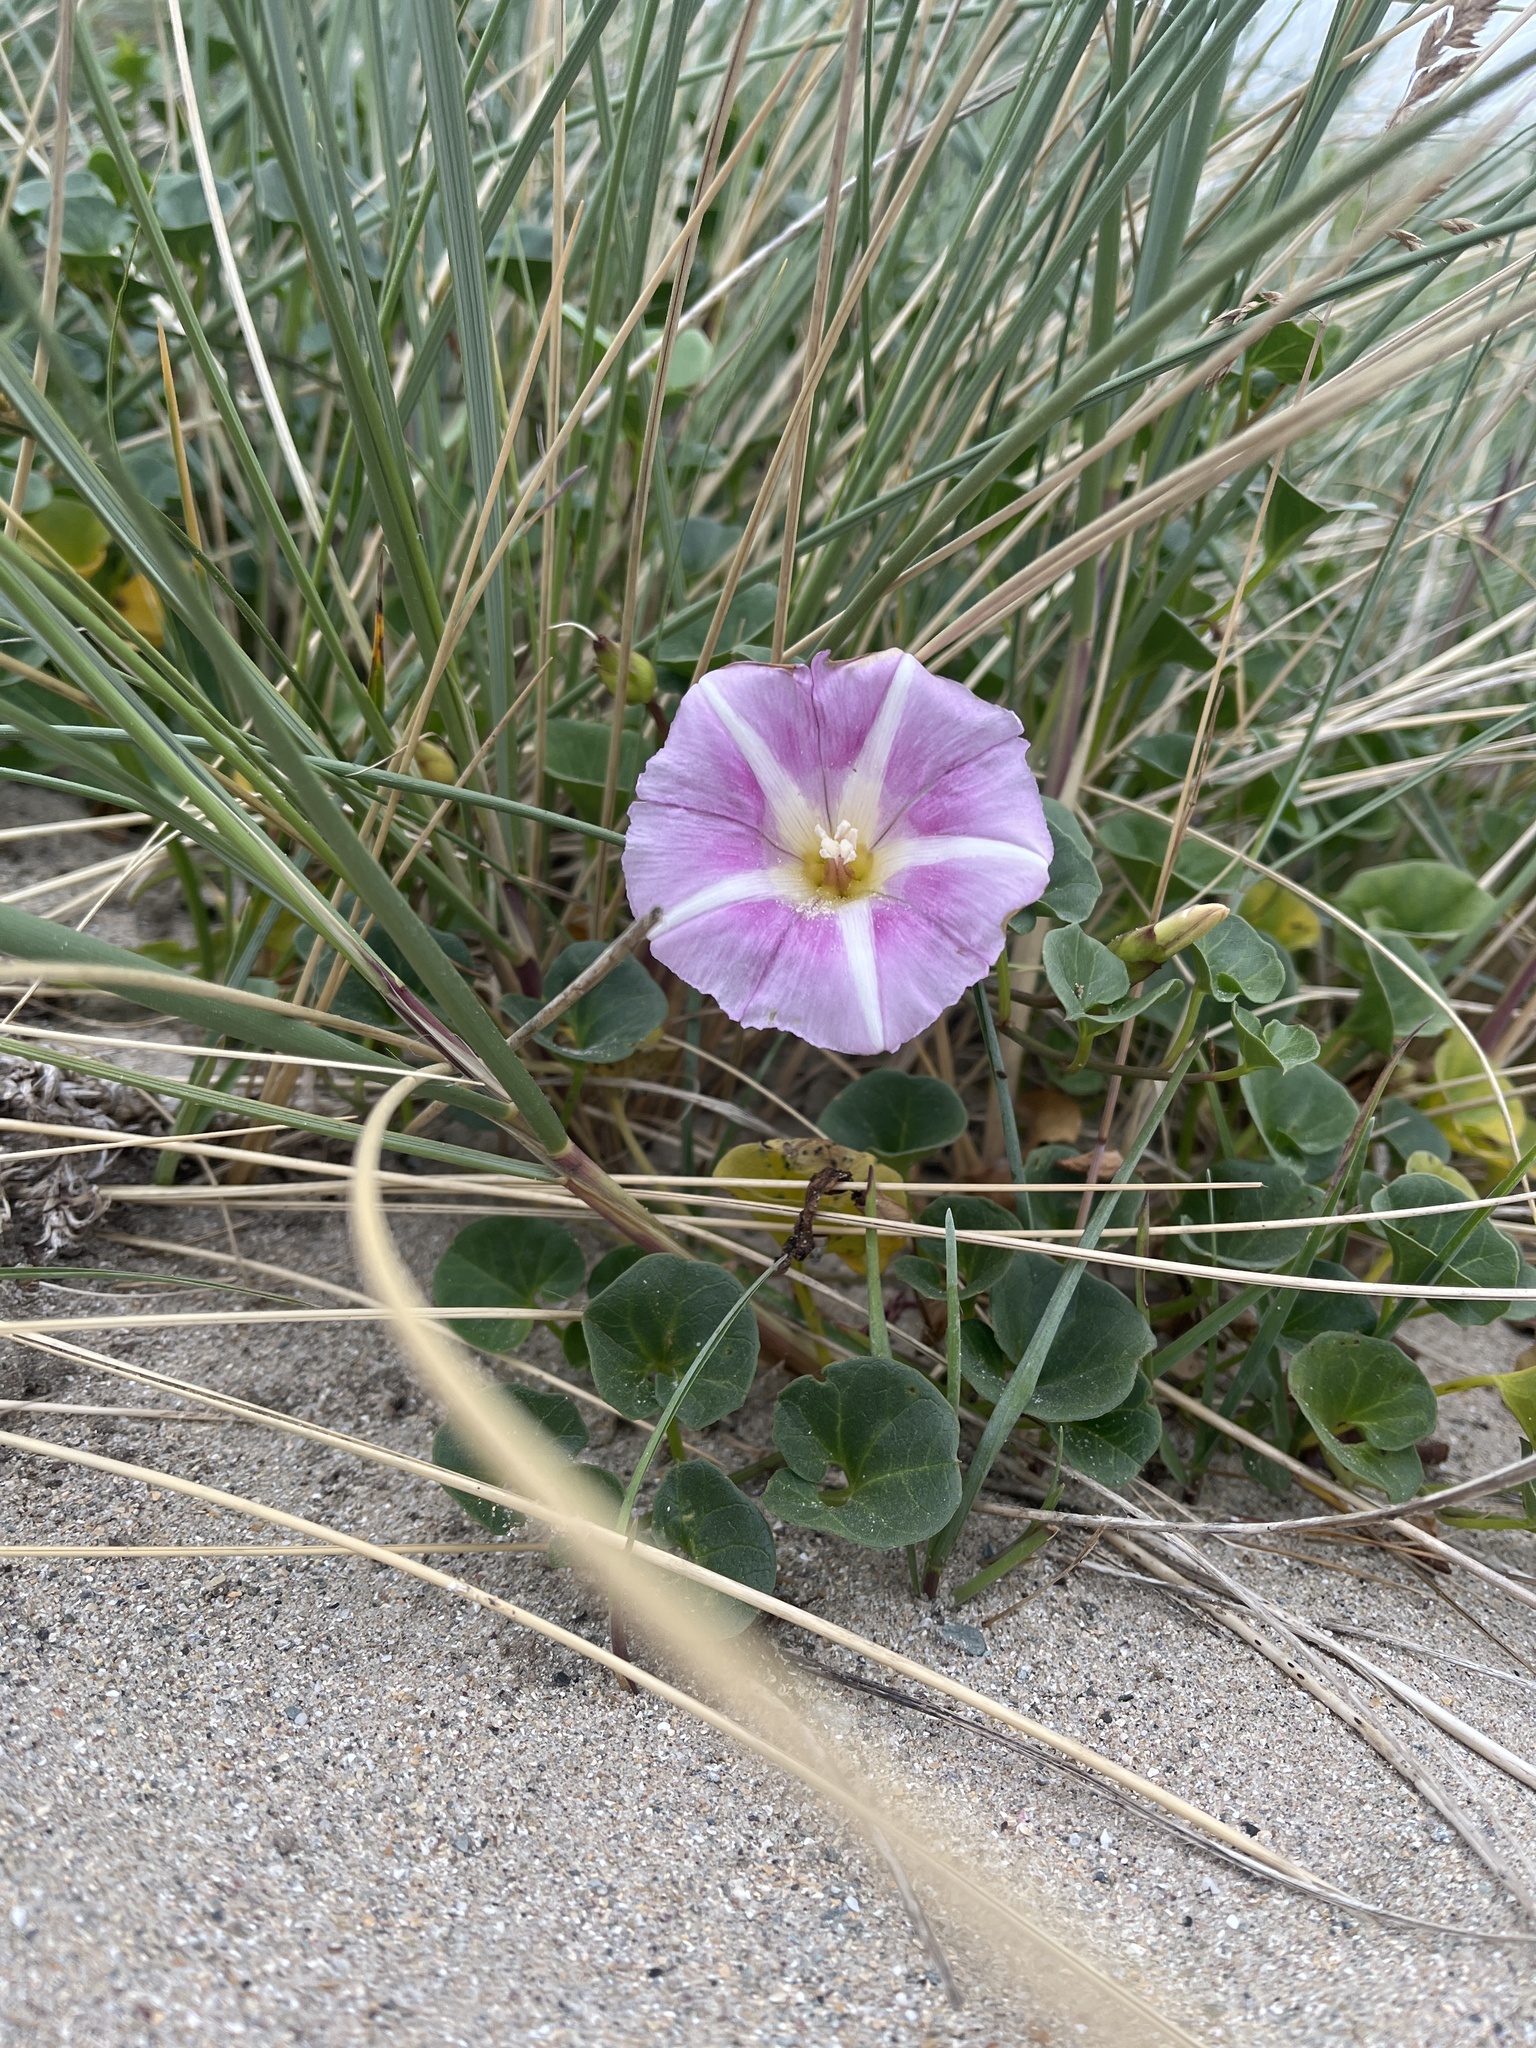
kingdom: Plantae
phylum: Tracheophyta
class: Magnoliopsida
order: Solanales
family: Convolvulaceae
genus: Calystegia
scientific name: Calystegia soldanella
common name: Sea bindweed
